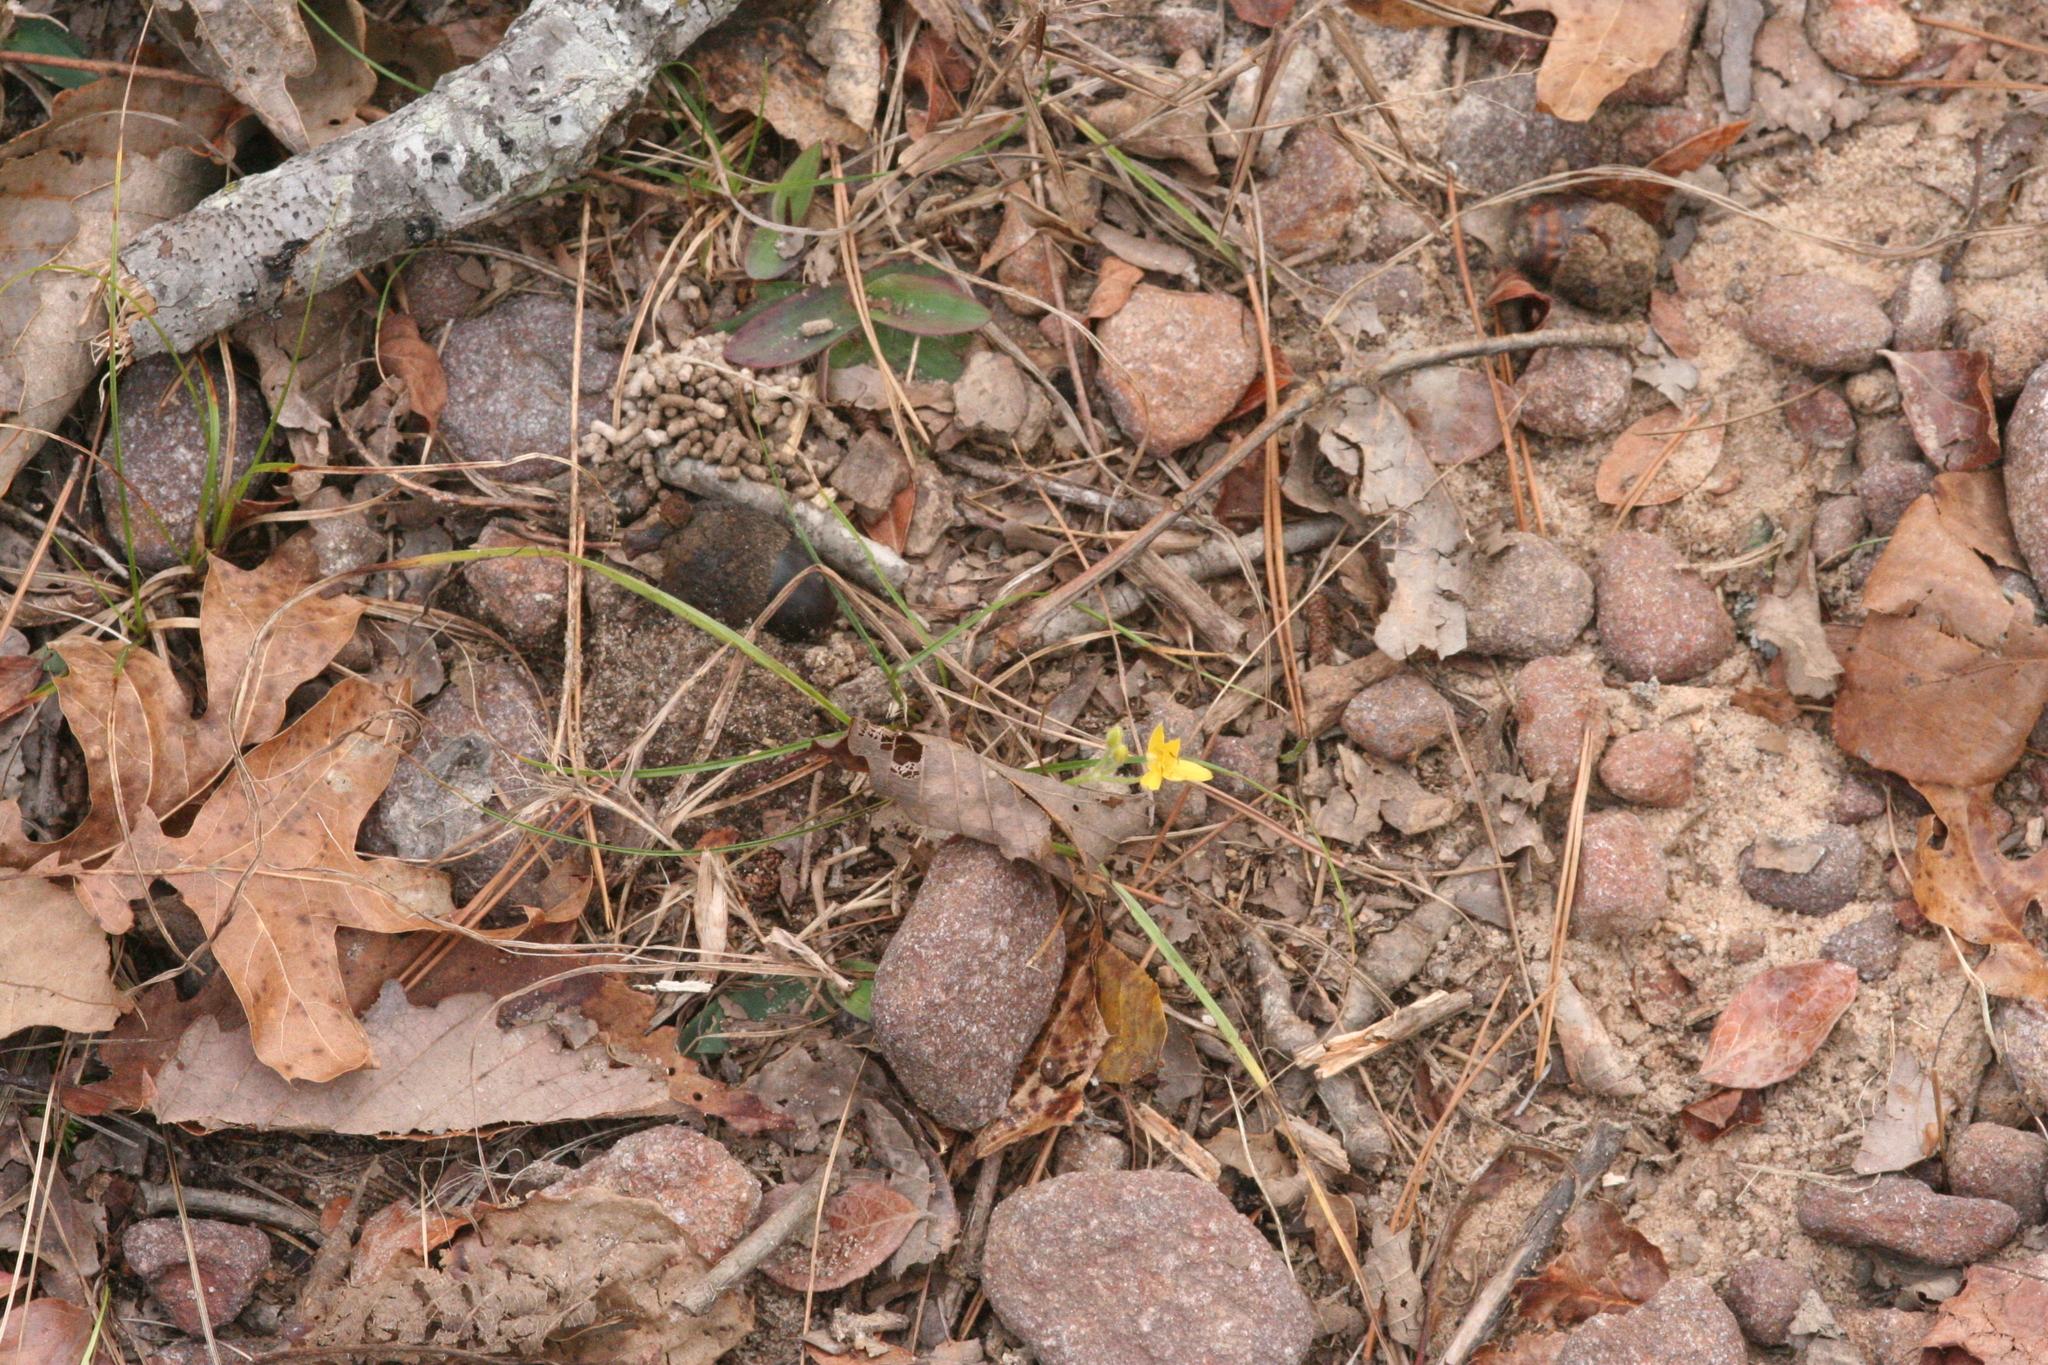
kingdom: Plantae
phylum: Tracheophyta
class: Liliopsida
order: Asparagales
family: Hypoxidaceae
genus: Hypoxis
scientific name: Hypoxis hirsuta
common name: Common goldstar
